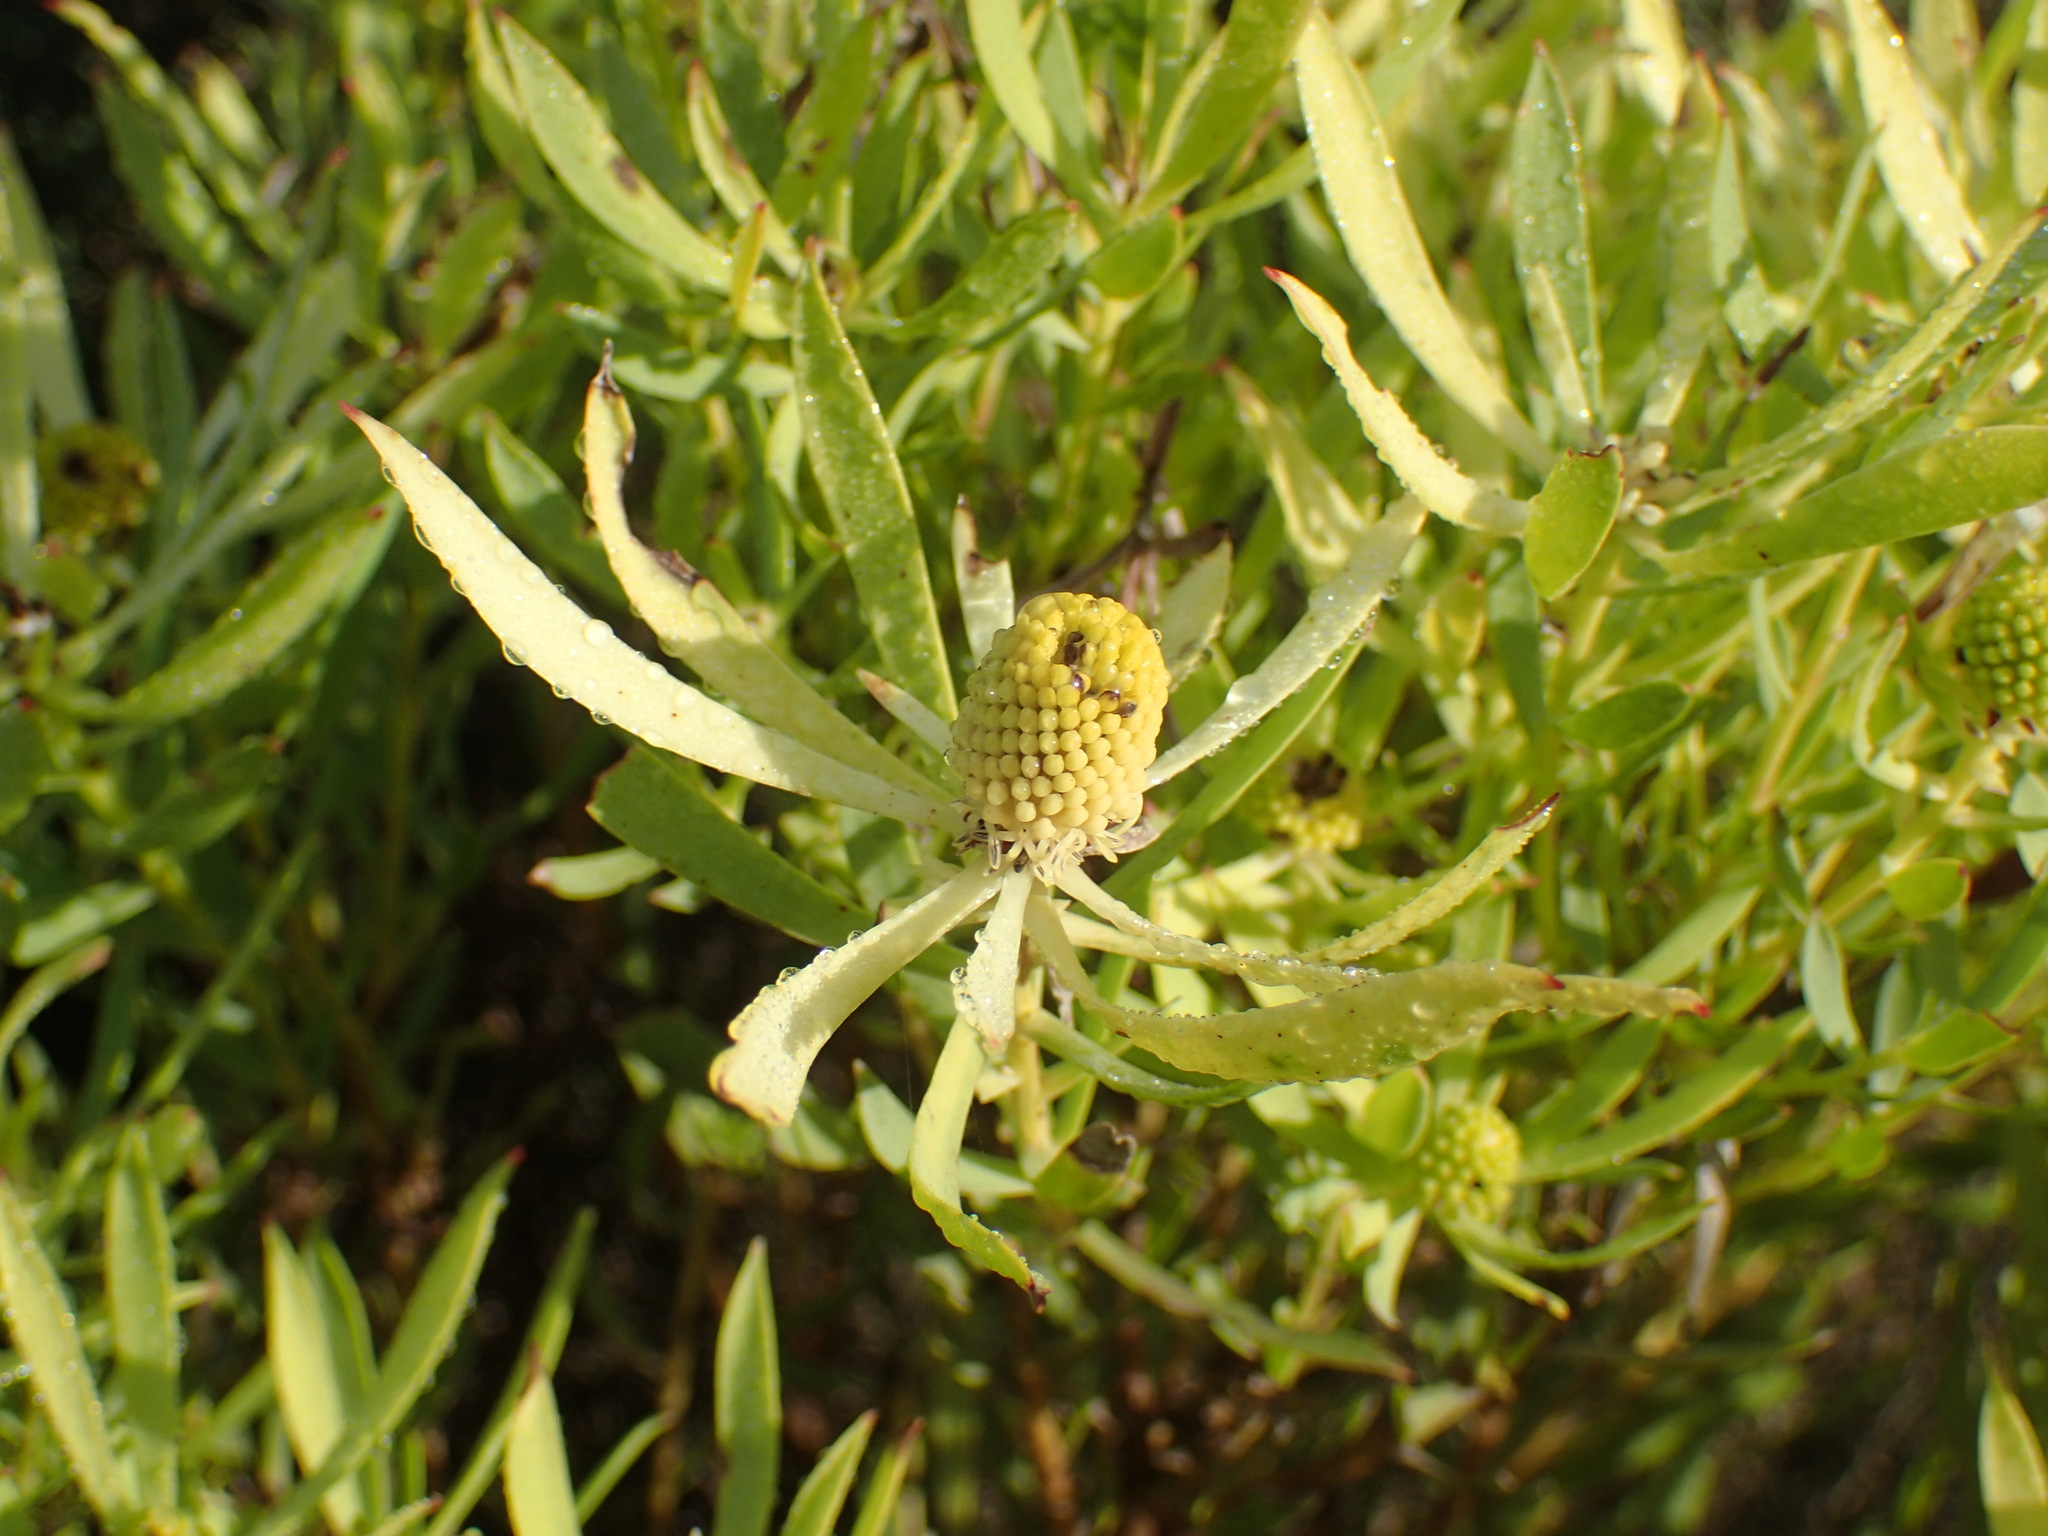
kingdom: Plantae
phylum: Tracheophyta
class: Magnoliopsida
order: Proteales
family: Proteaceae
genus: Leucadendron
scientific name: Leucadendron salignum
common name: Common sunshine conebush
